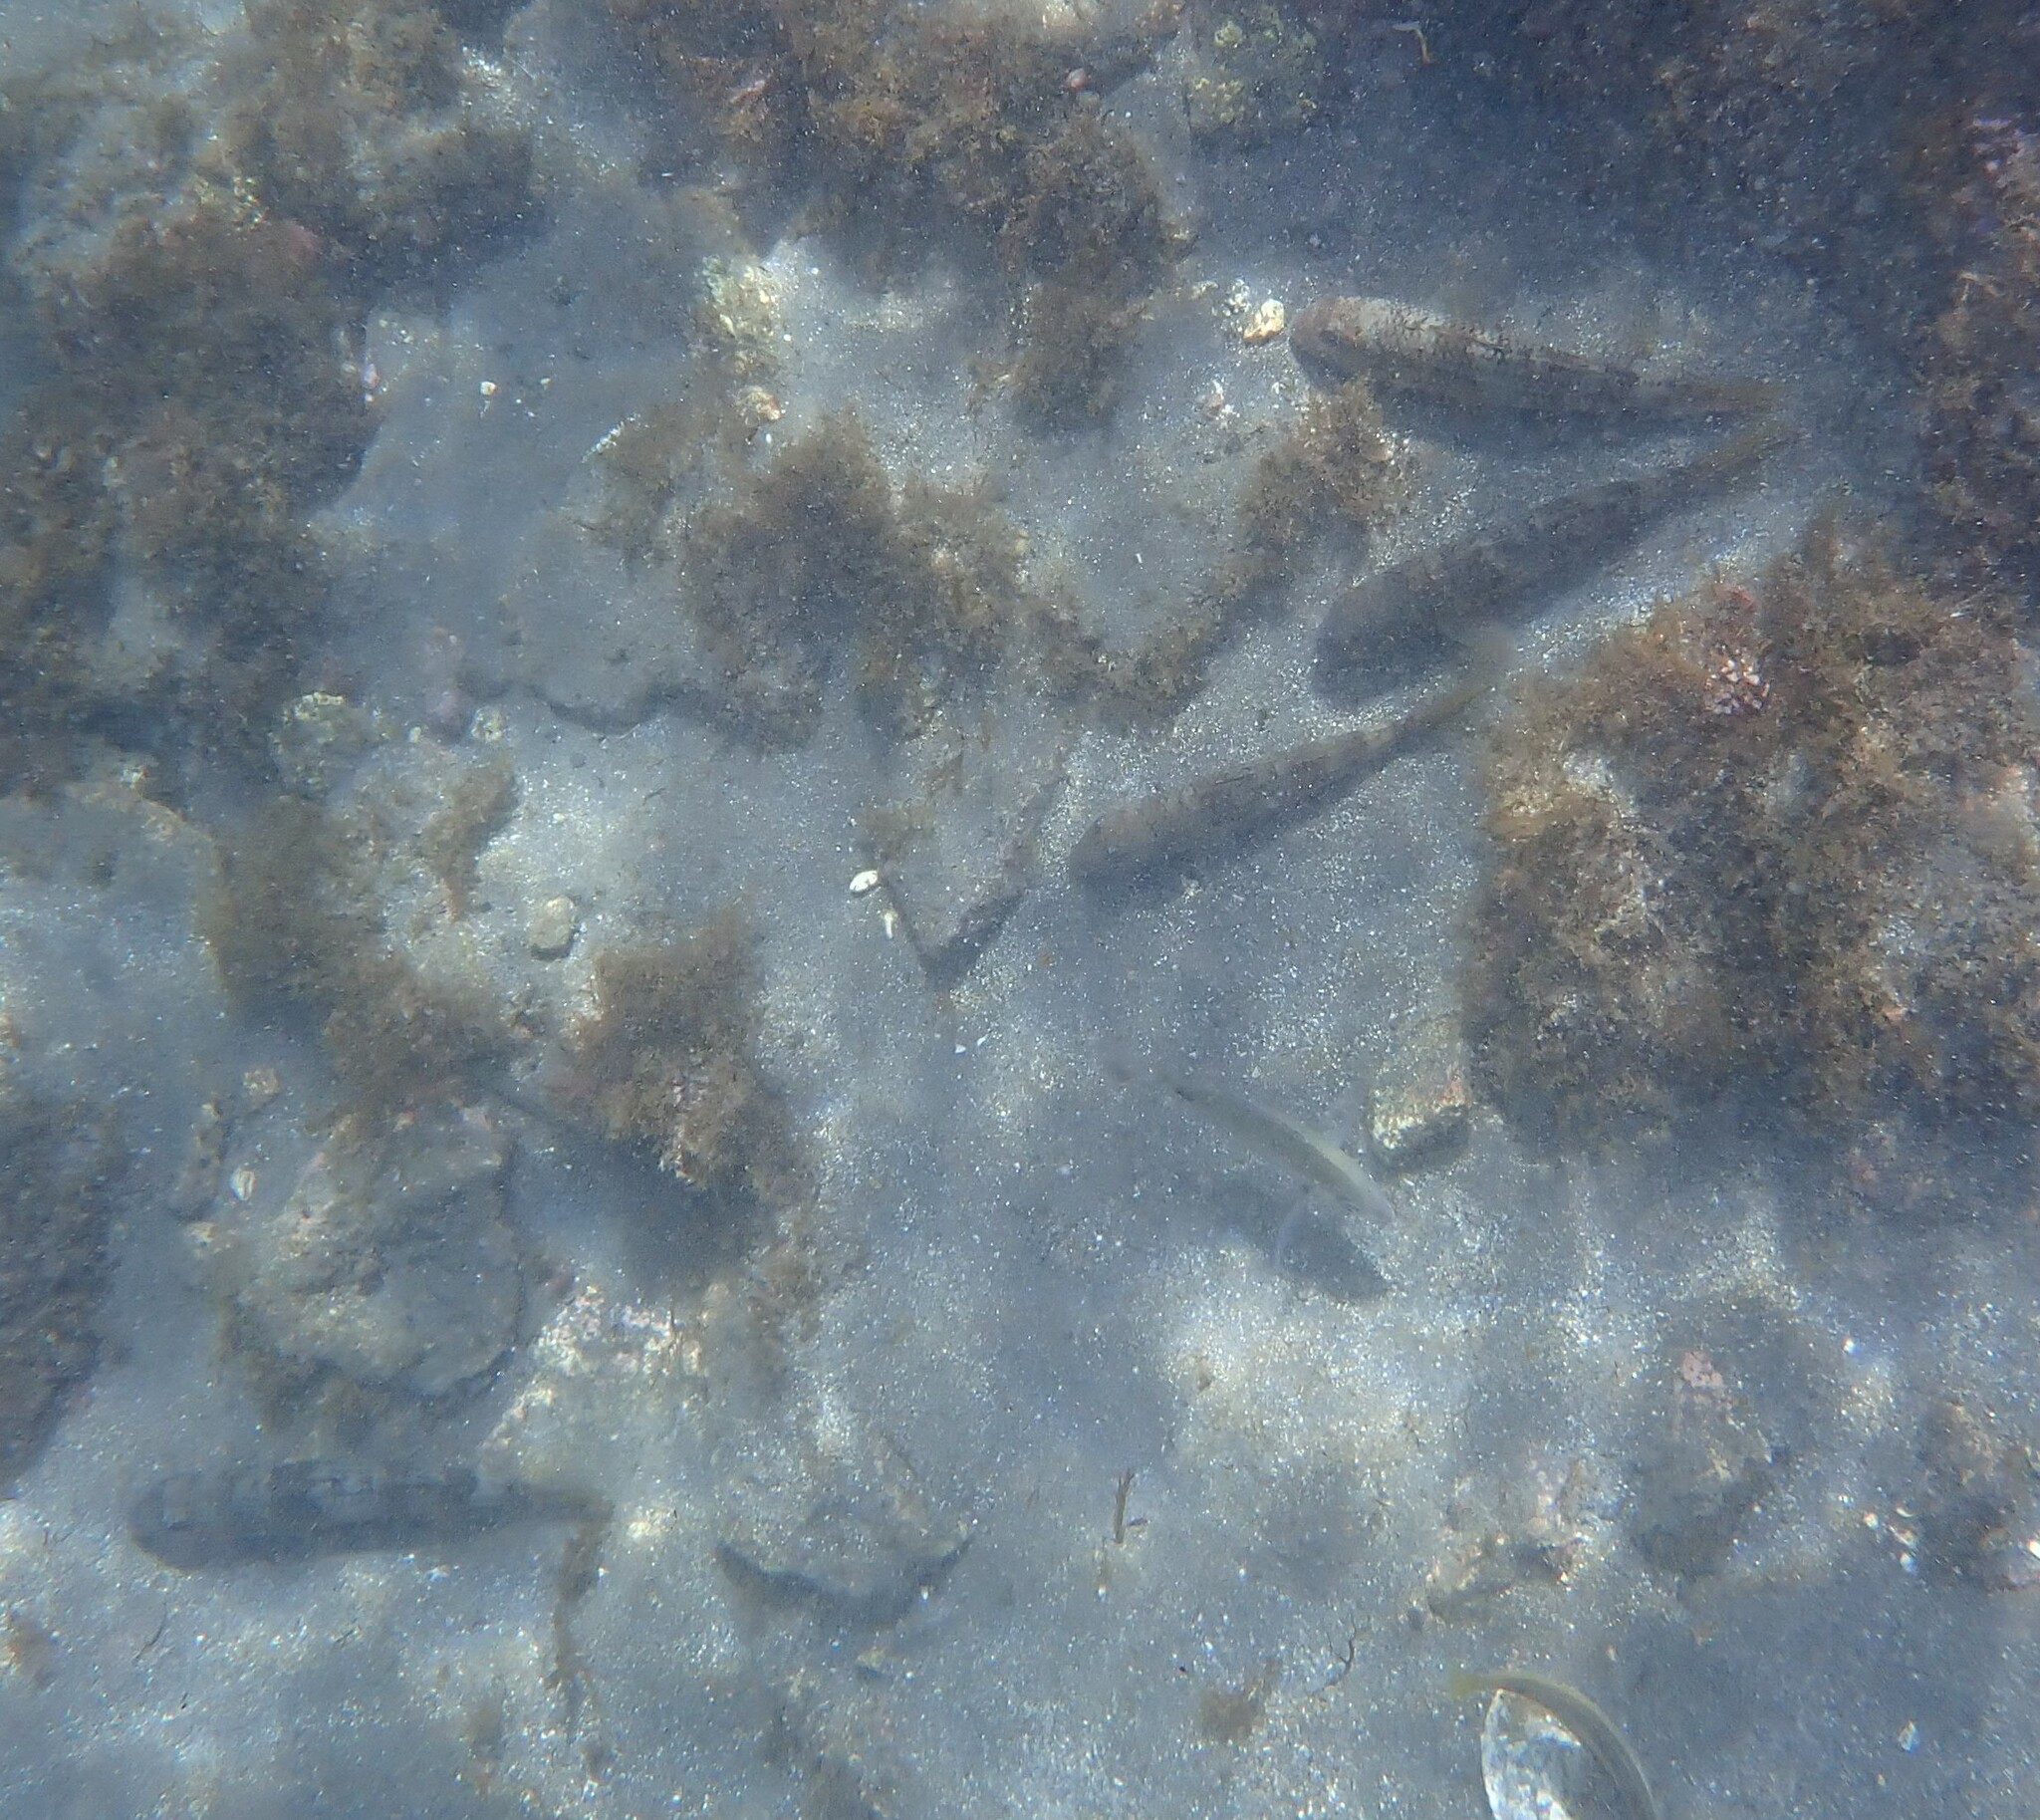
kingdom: Animalia
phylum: Chordata
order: Perciformes
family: Mullidae
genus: Mullus
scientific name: Mullus surmuletus
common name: Red mullet
